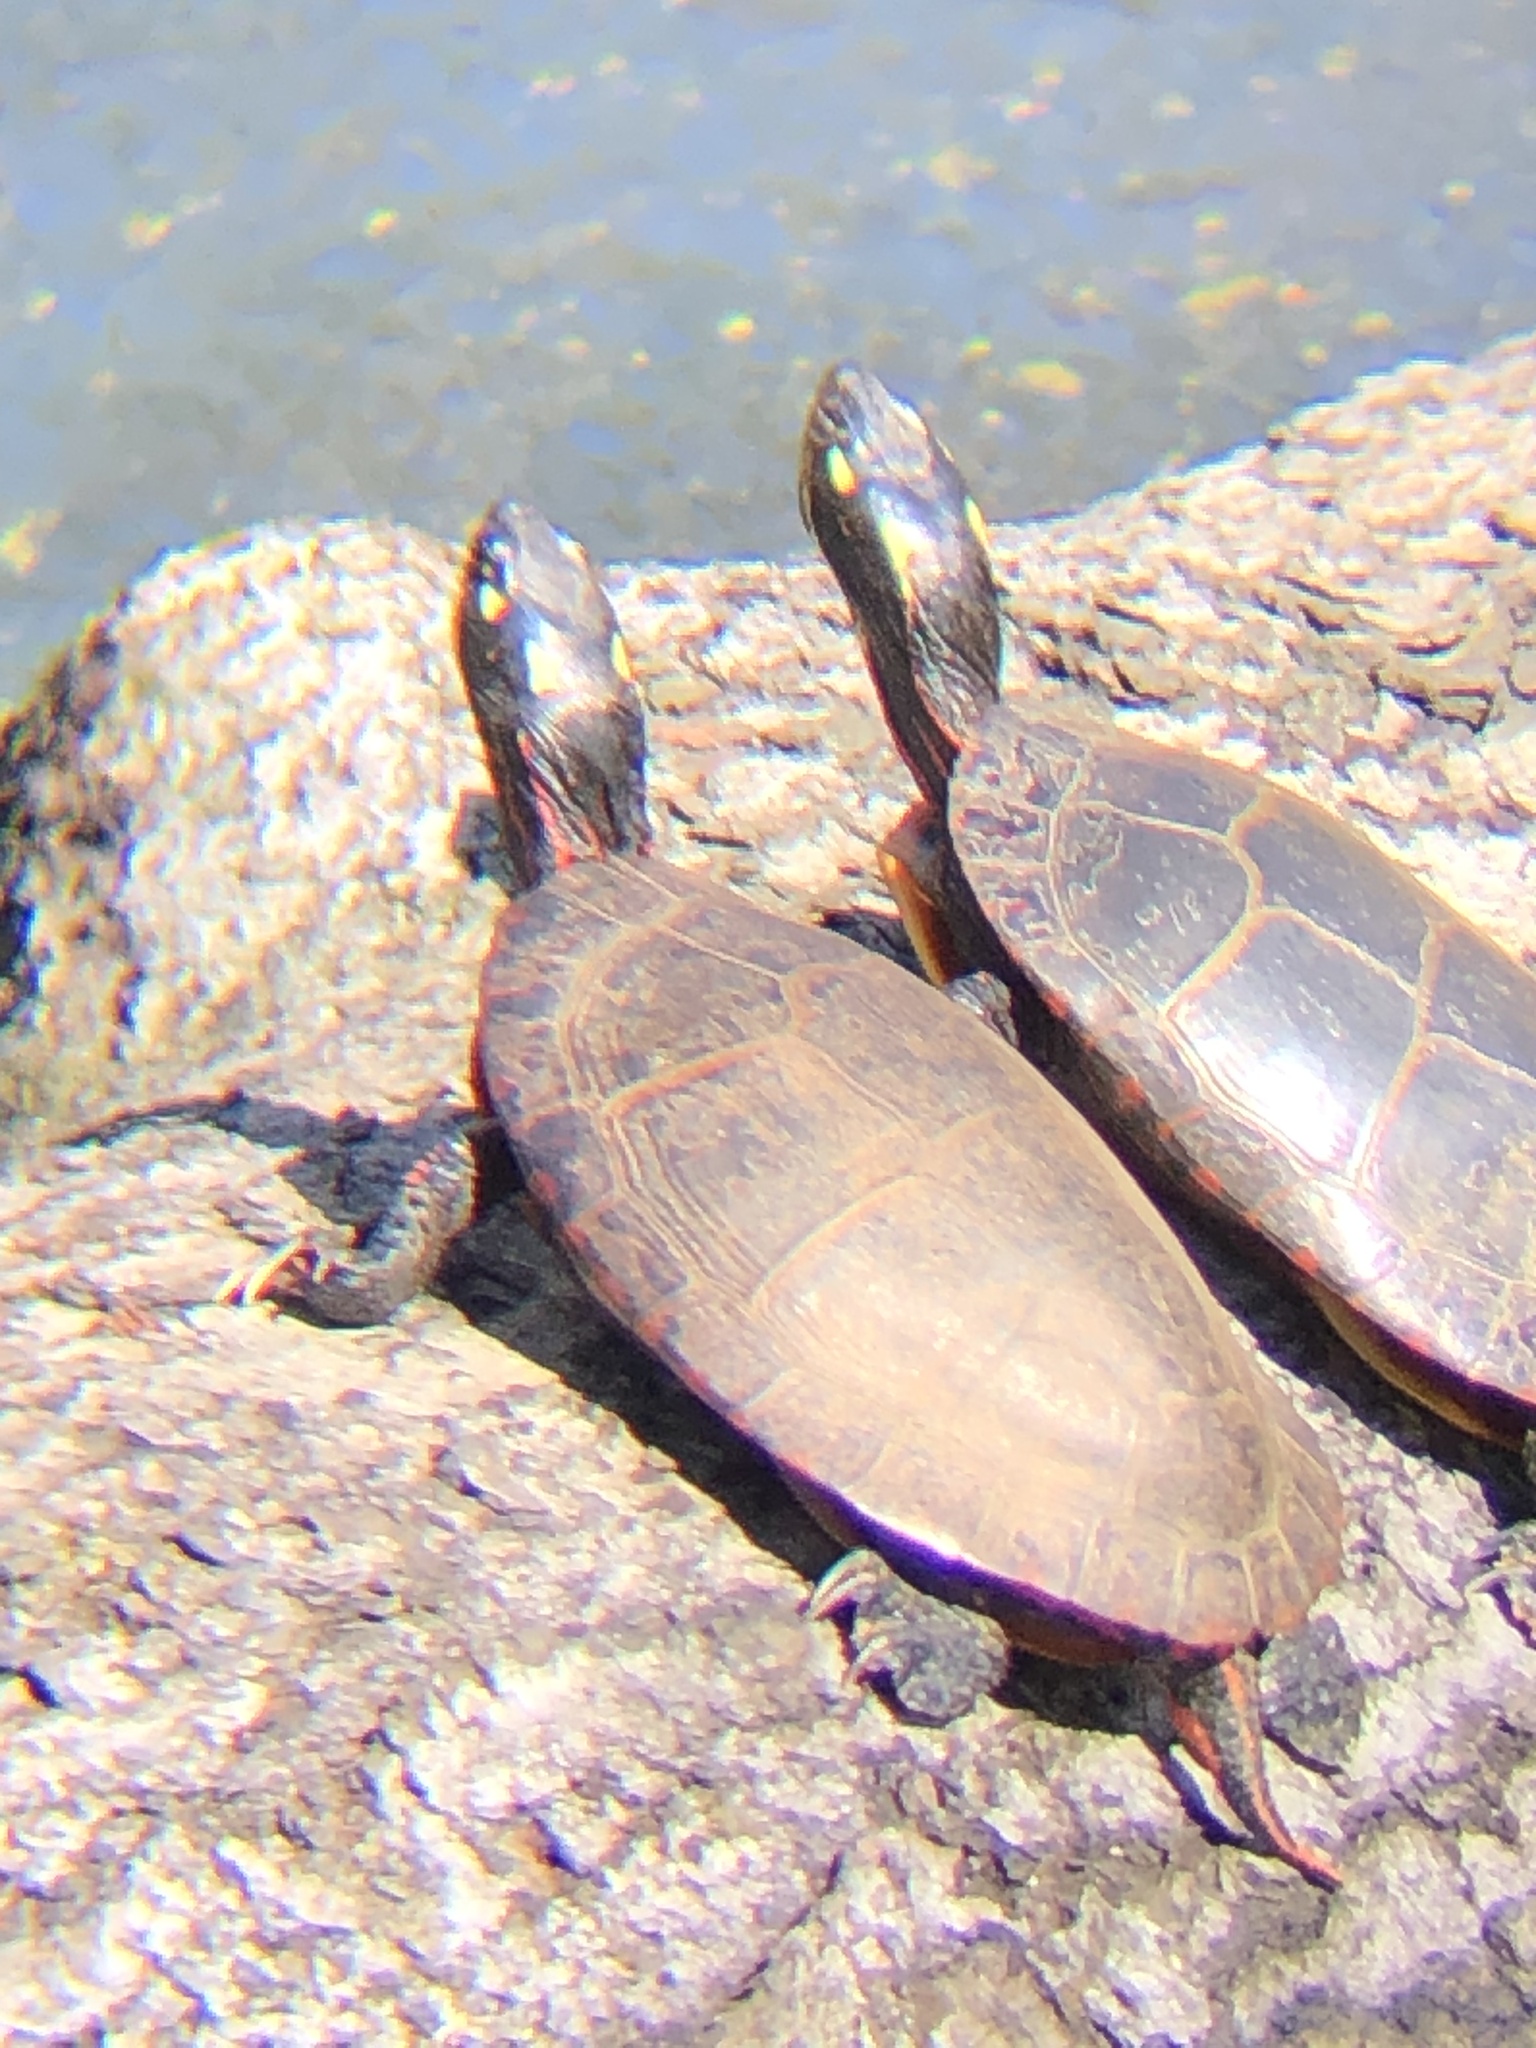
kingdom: Animalia
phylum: Chordata
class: Testudines
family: Emydidae
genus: Chrysemys
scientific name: Chrysemys picta
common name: Painted turtle
